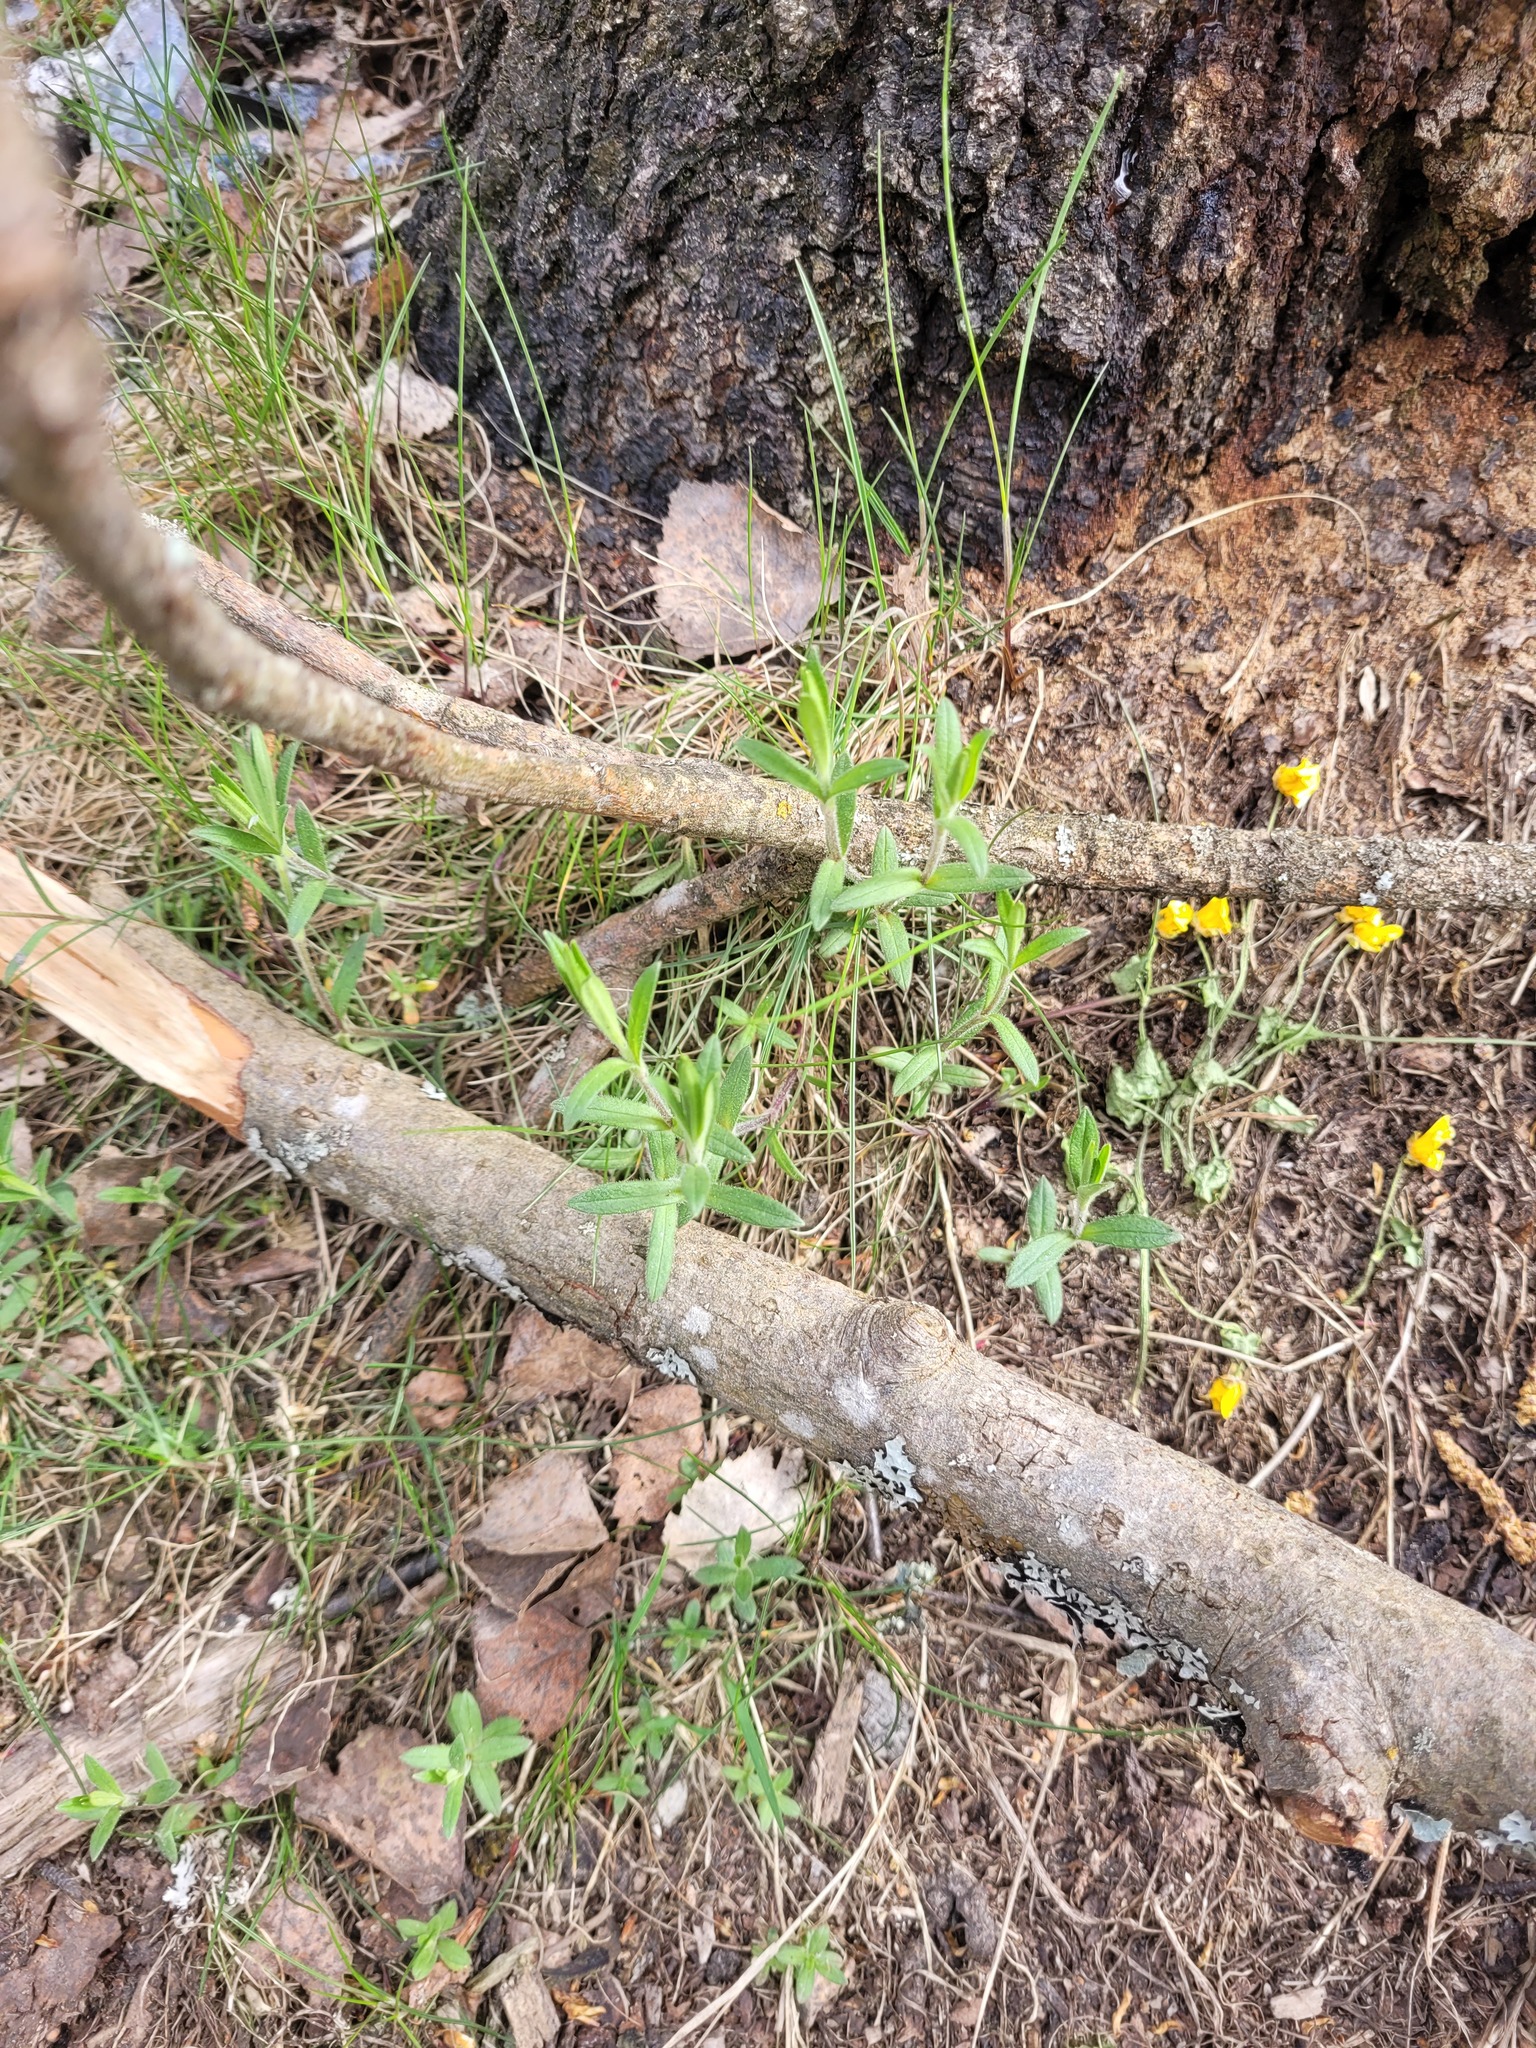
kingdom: Plantae
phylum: Tracheophyta
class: Magnoliopsida
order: Caryophyllales
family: Caryophyllaceae
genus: Cerastium
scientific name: Cerastium arvense
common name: Field mouse-ear
